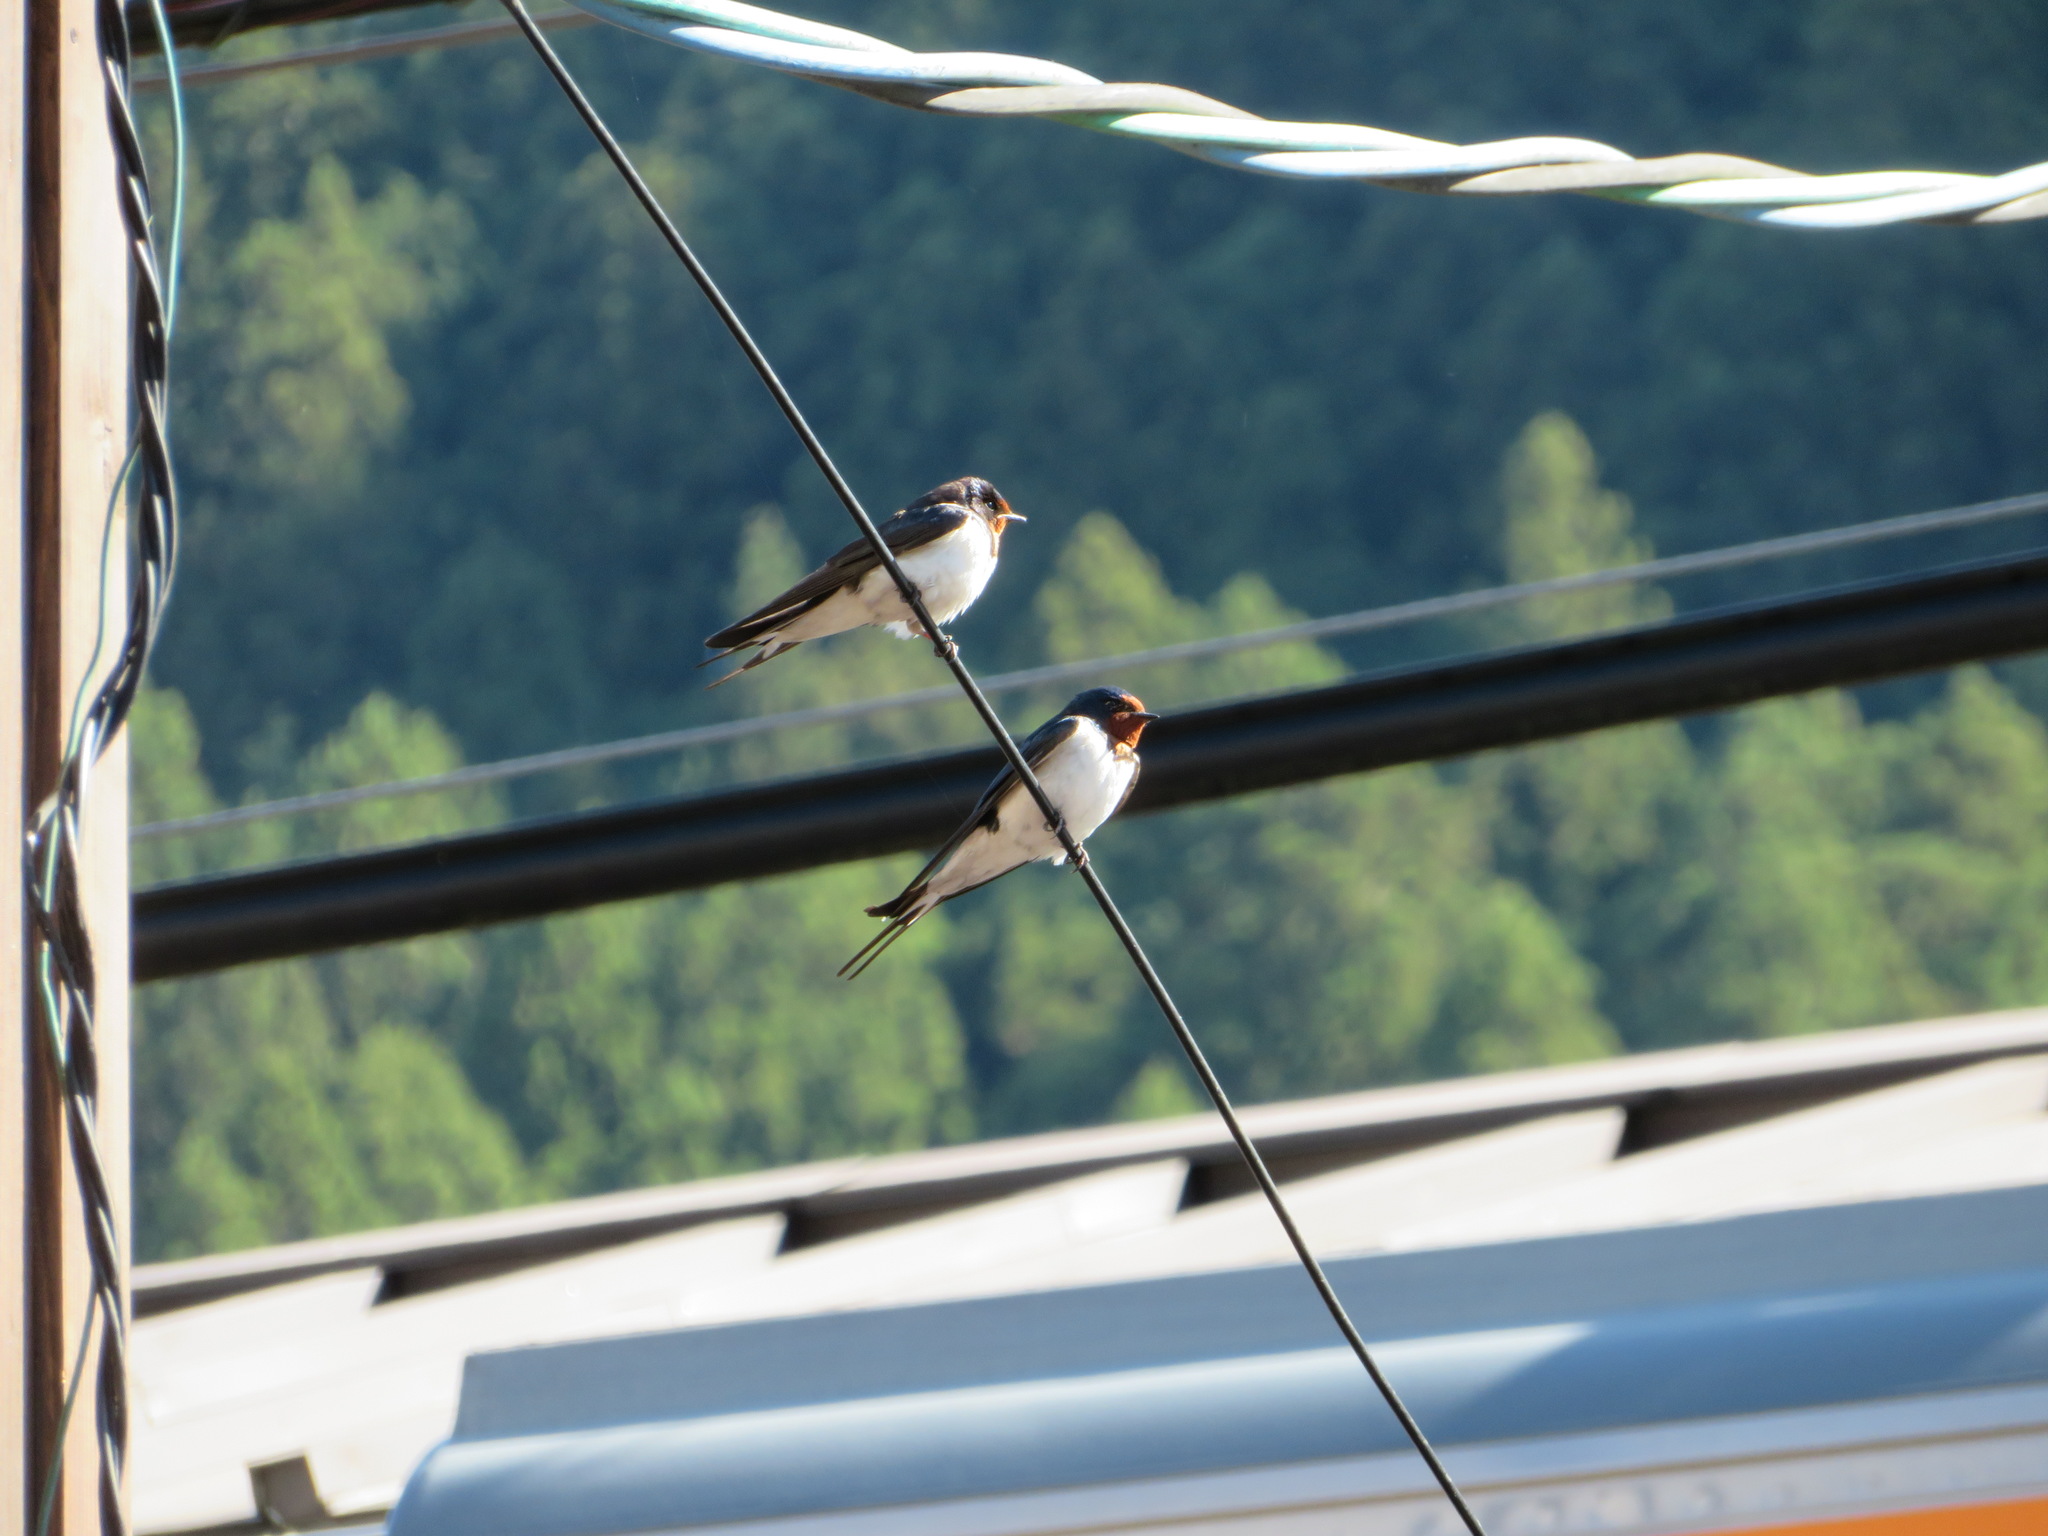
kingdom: Animalia
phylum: Chordata
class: Aves
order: Passeriformes
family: Hirundinidae
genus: Hirundo
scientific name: Hirundo rustica
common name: Barn swallow
